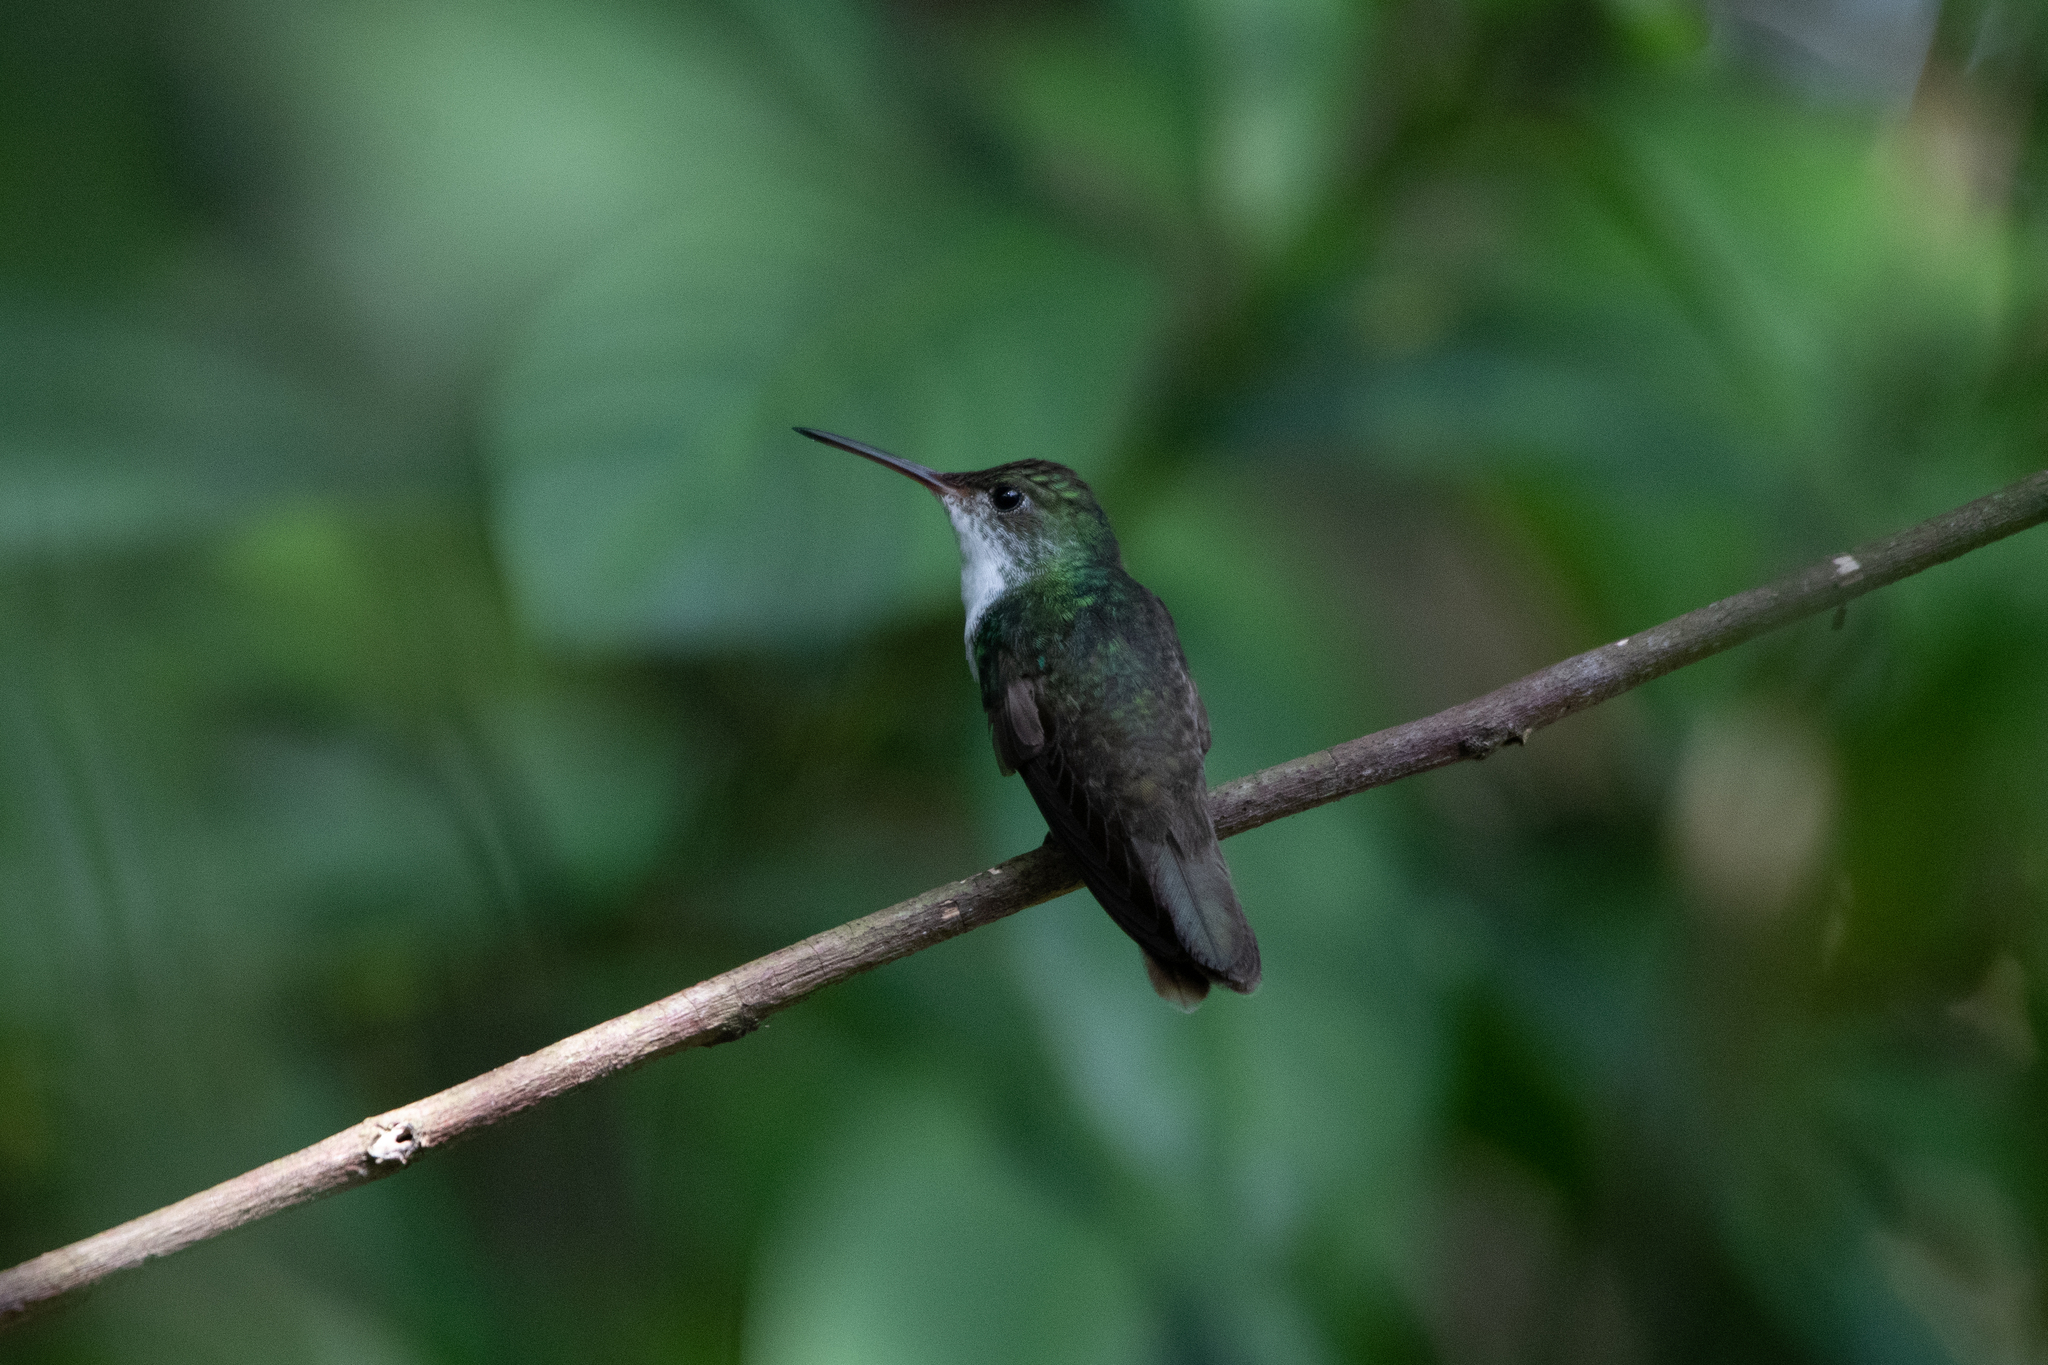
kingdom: Animalia
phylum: Chordata
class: Aves
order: Apodiformes
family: Trochilidae
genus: Chlorestes
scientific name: Chlorestes candida
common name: White-bellied emerald
